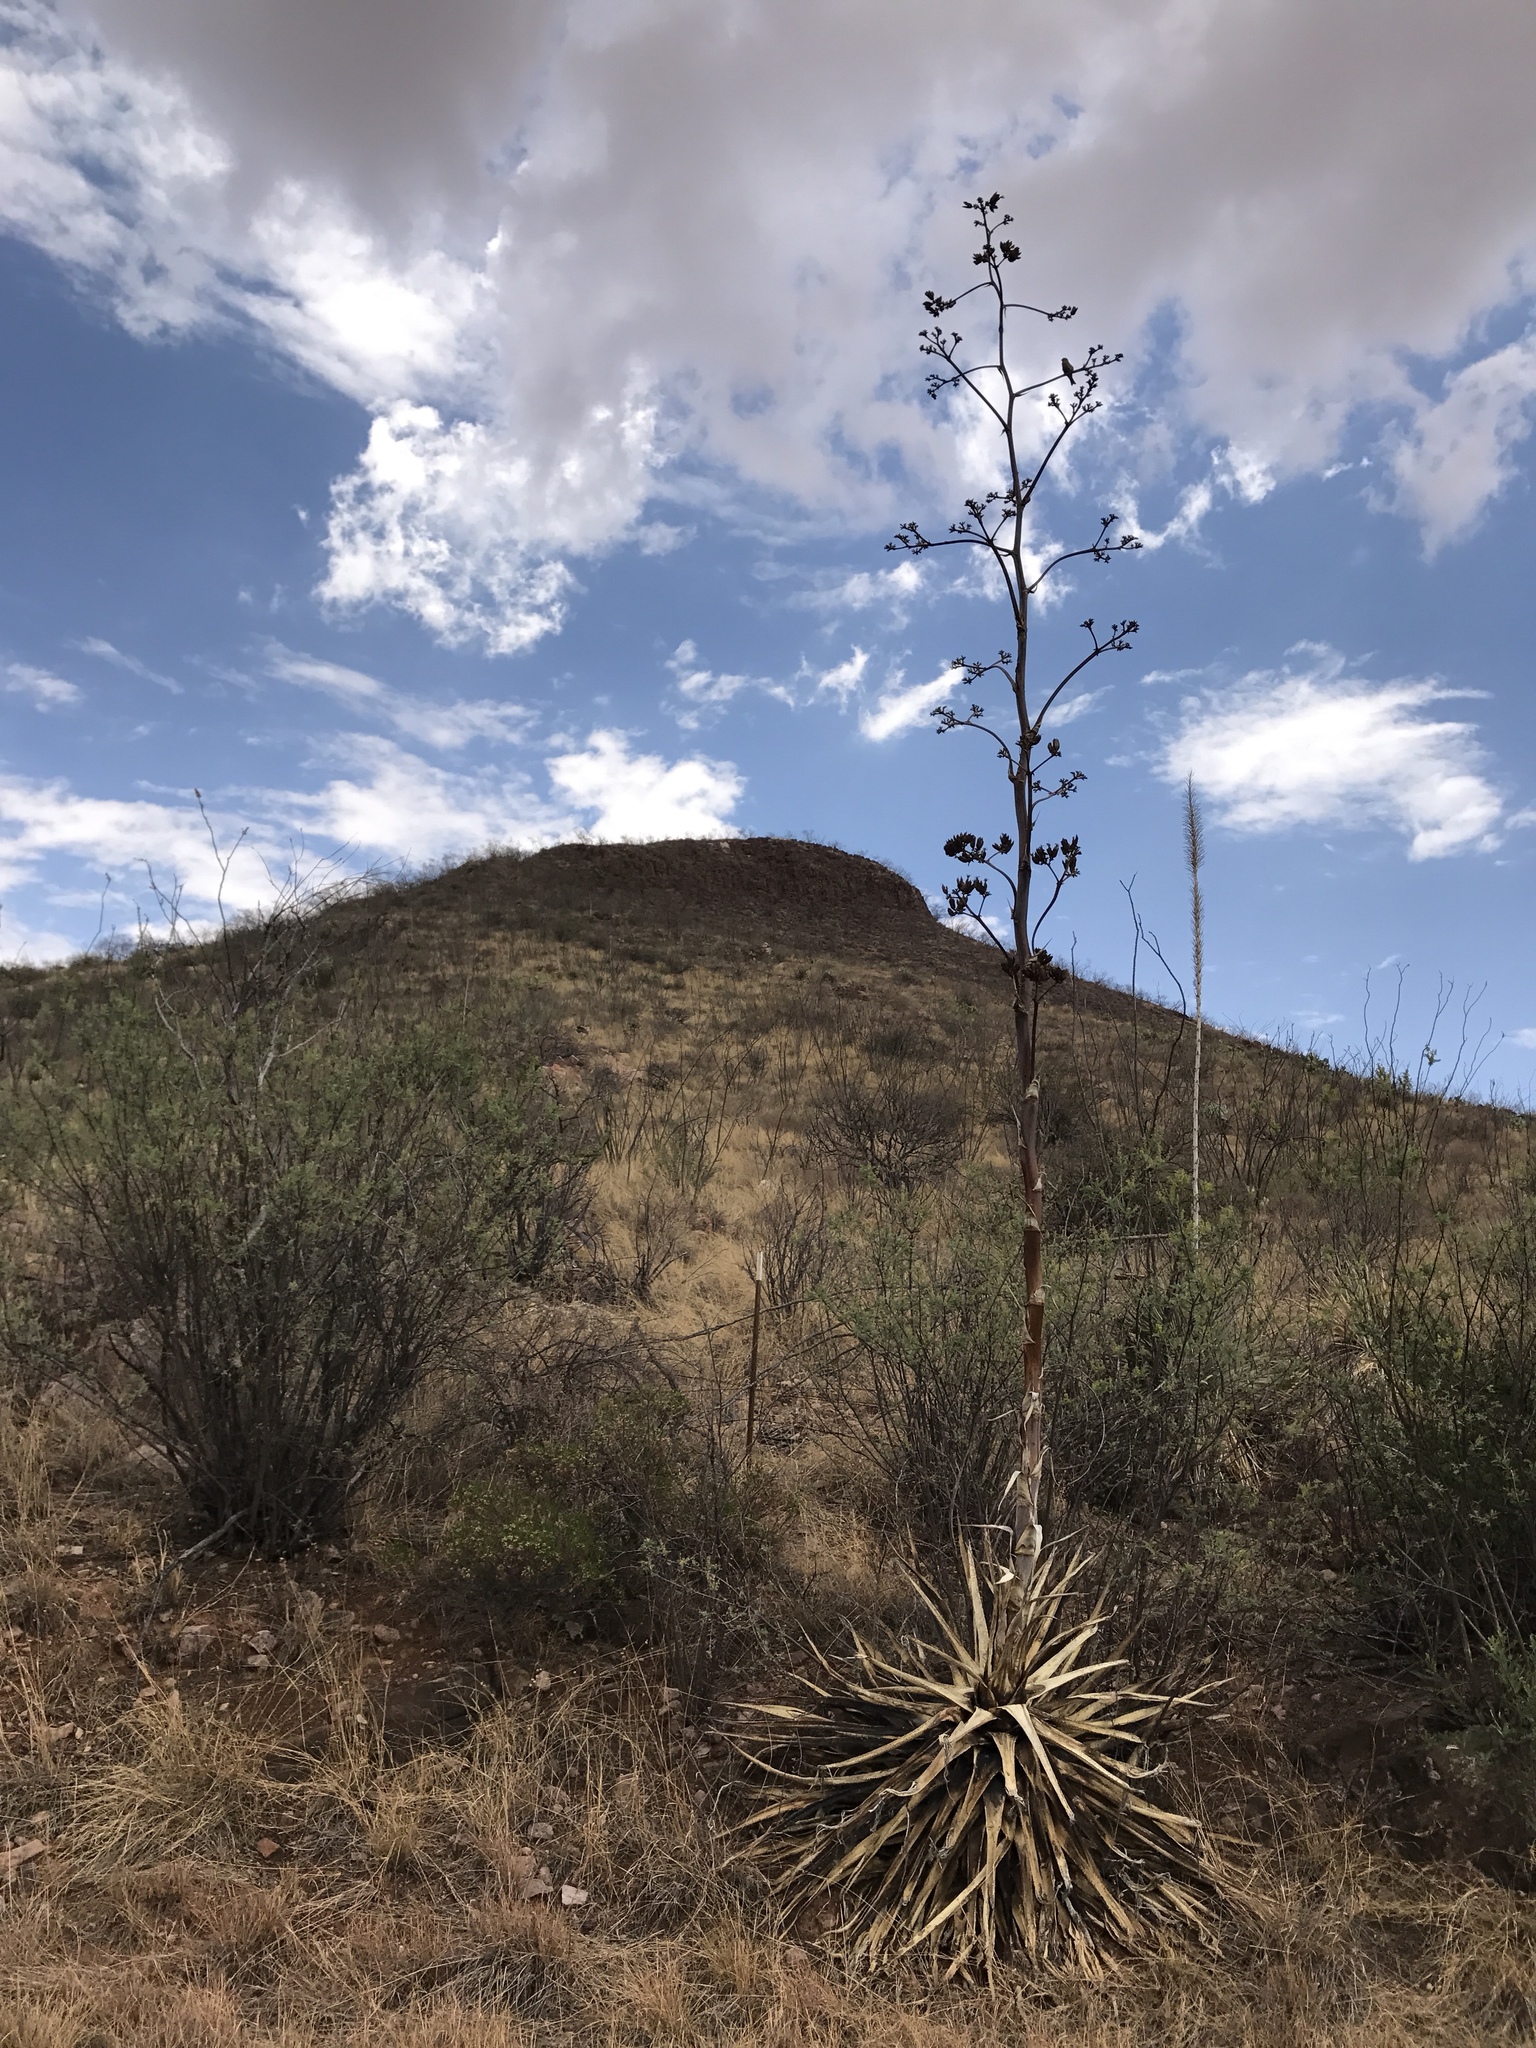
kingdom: Plantae
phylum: Tracheophyta
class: Liliopsida
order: Asparagales
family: Asparagaceae
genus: Agave
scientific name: Agave palmeri
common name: Palmer agave
